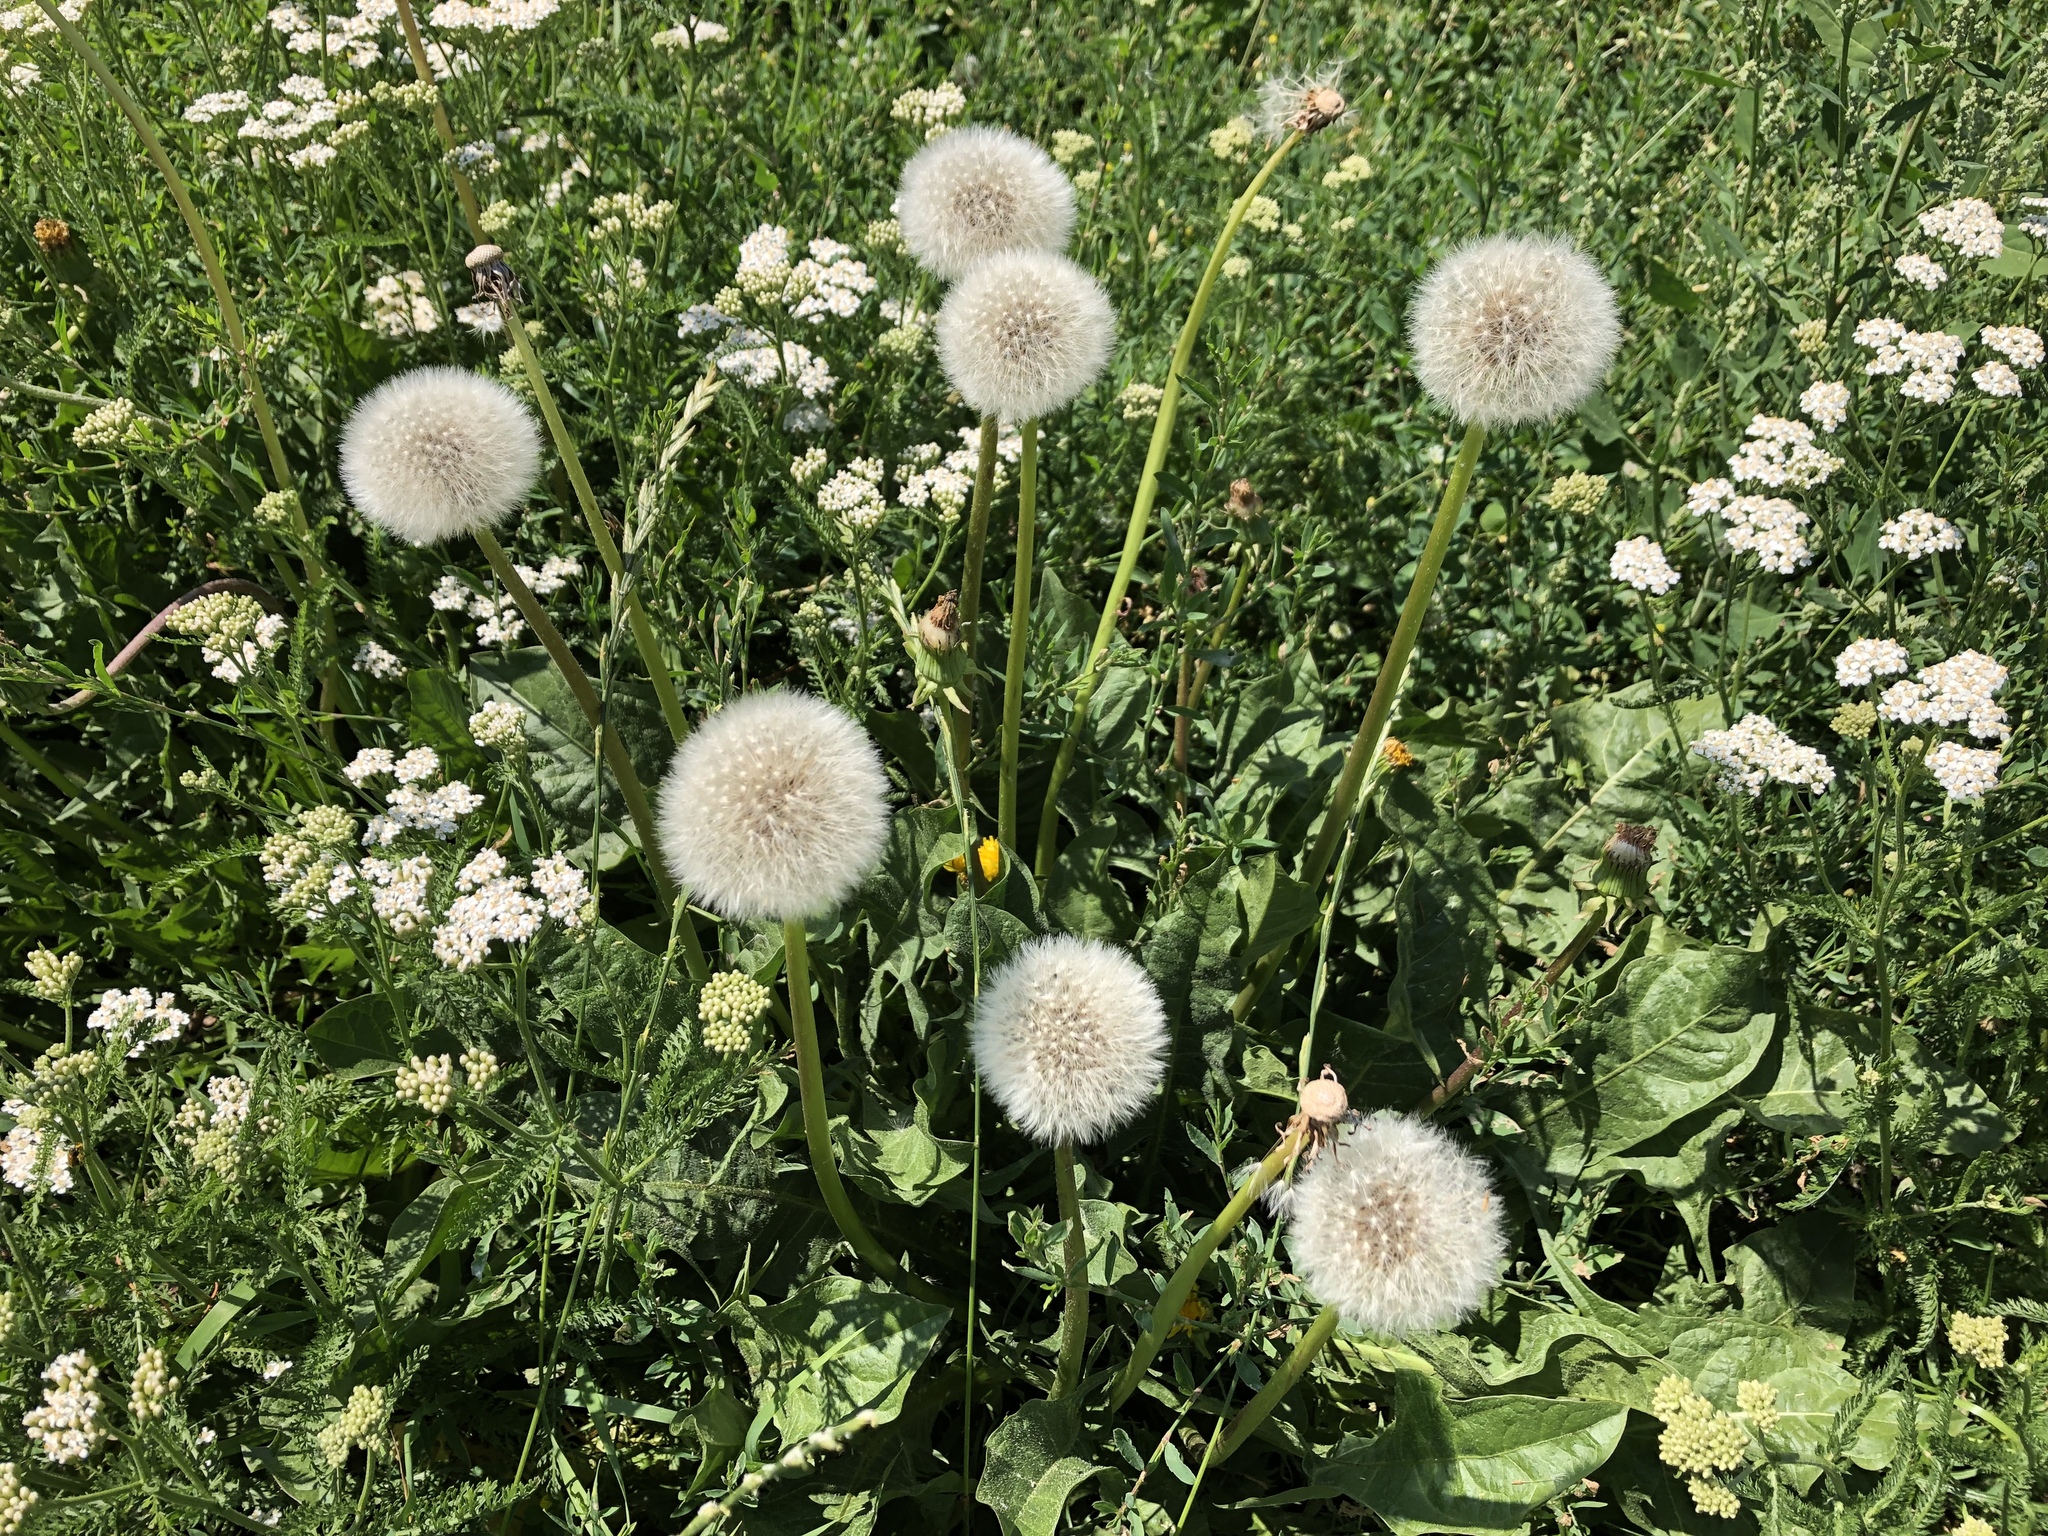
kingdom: Plantae
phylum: Tracheophyta
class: Magnoliopsida
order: Asterales
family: Asteraceae
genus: Taraxacum
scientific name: Taraxacum officinale
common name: Common dandelion
